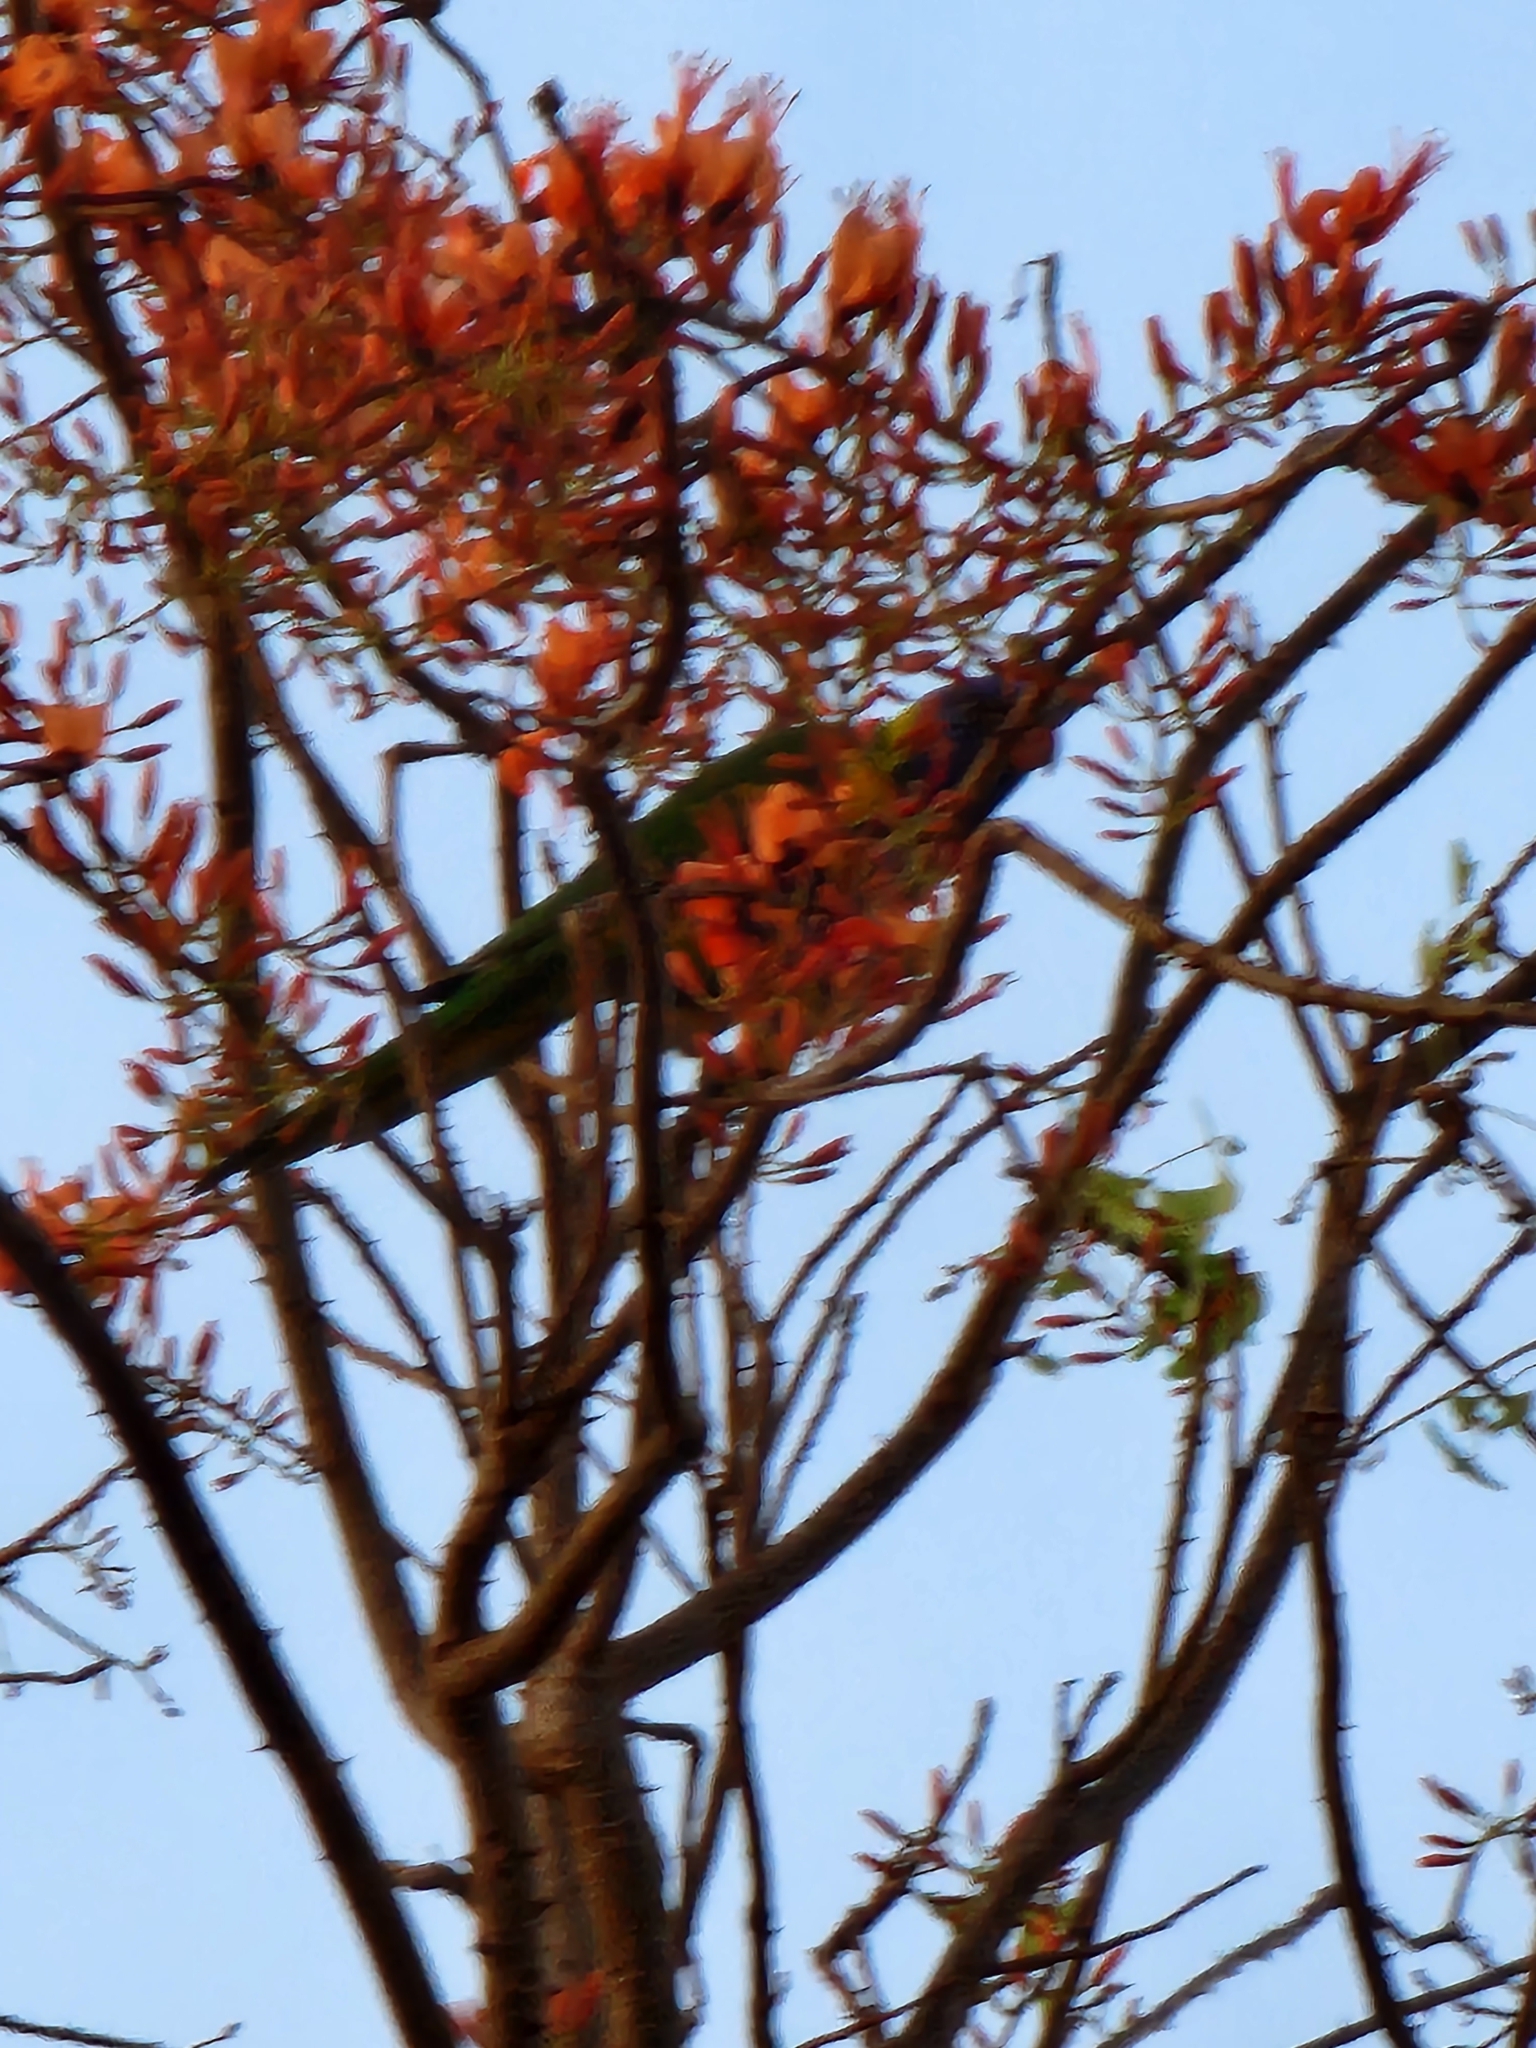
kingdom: Animalia
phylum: Chordata
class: Aves
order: Psittaciformes
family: Psittacidae
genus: Trichoglossus
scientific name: Trichoglossus haematodus
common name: Coconut lorikeet
